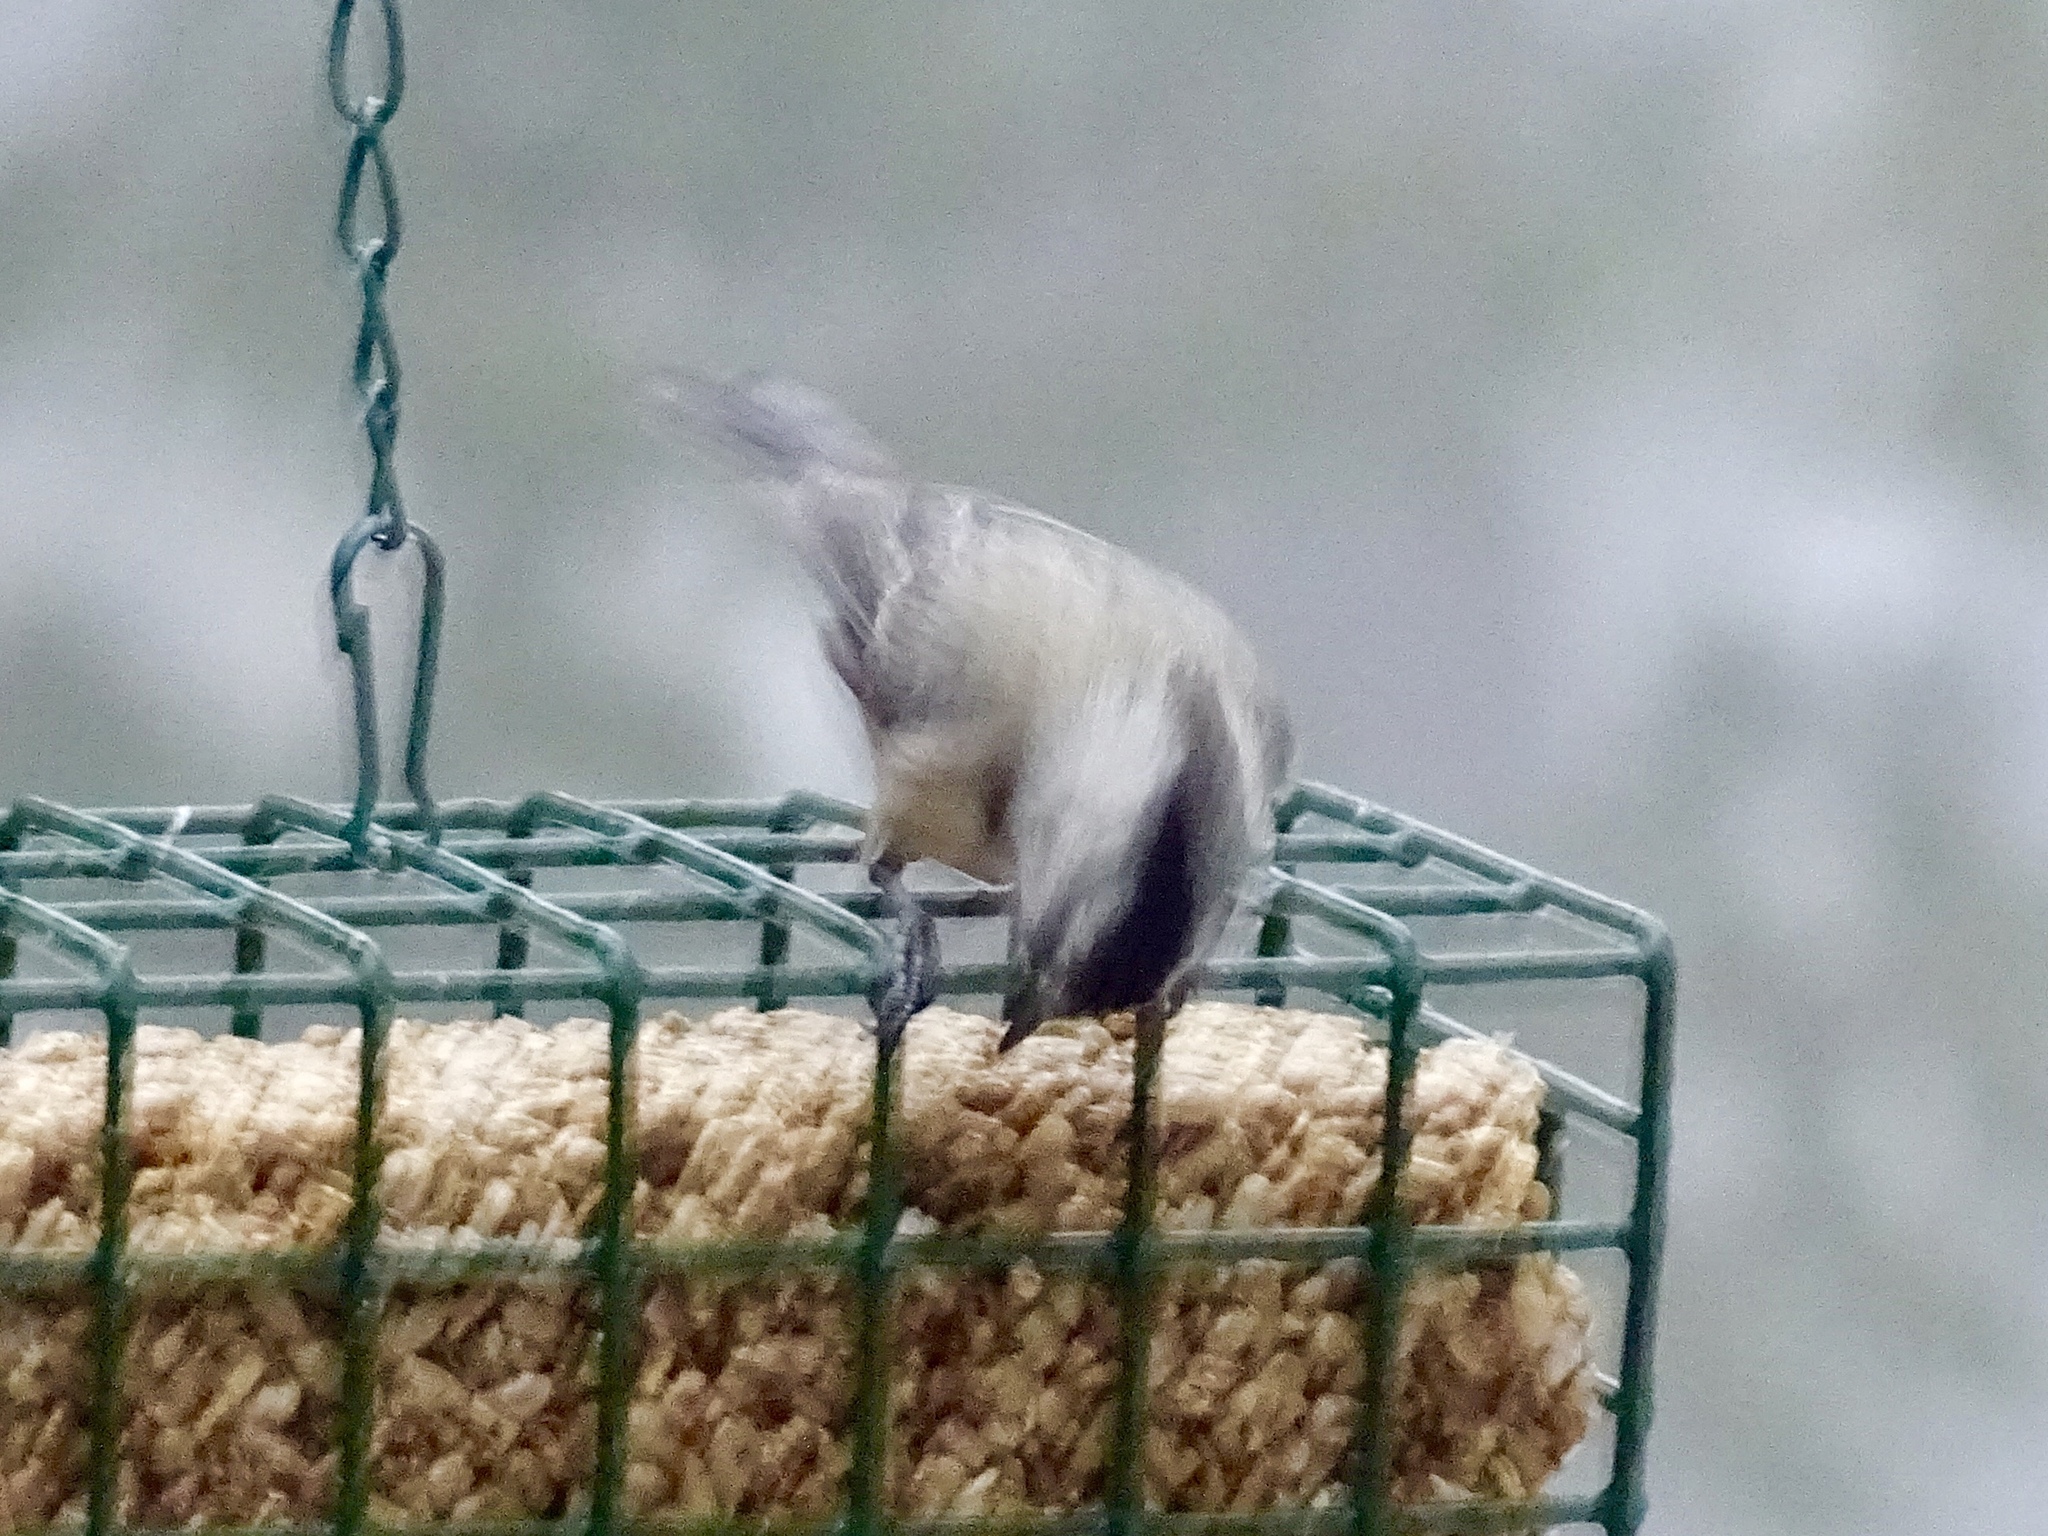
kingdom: Animalia
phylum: Chordata
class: Aves
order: Passeriformes
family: Paridae
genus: Poecile
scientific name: Poecile gambeli
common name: Mountain chickadee
